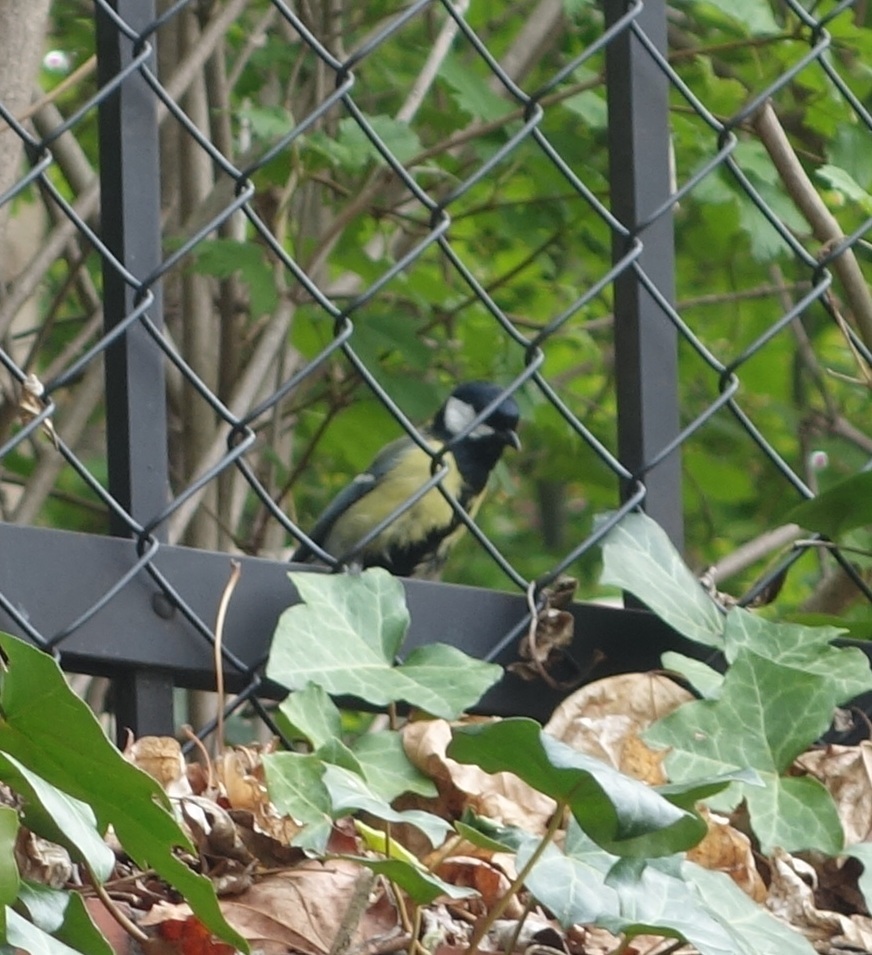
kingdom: Animalia
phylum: Chordata
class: Aves
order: Passeriformes
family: Paridae
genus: Parus
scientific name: Parus major
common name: Great tit
